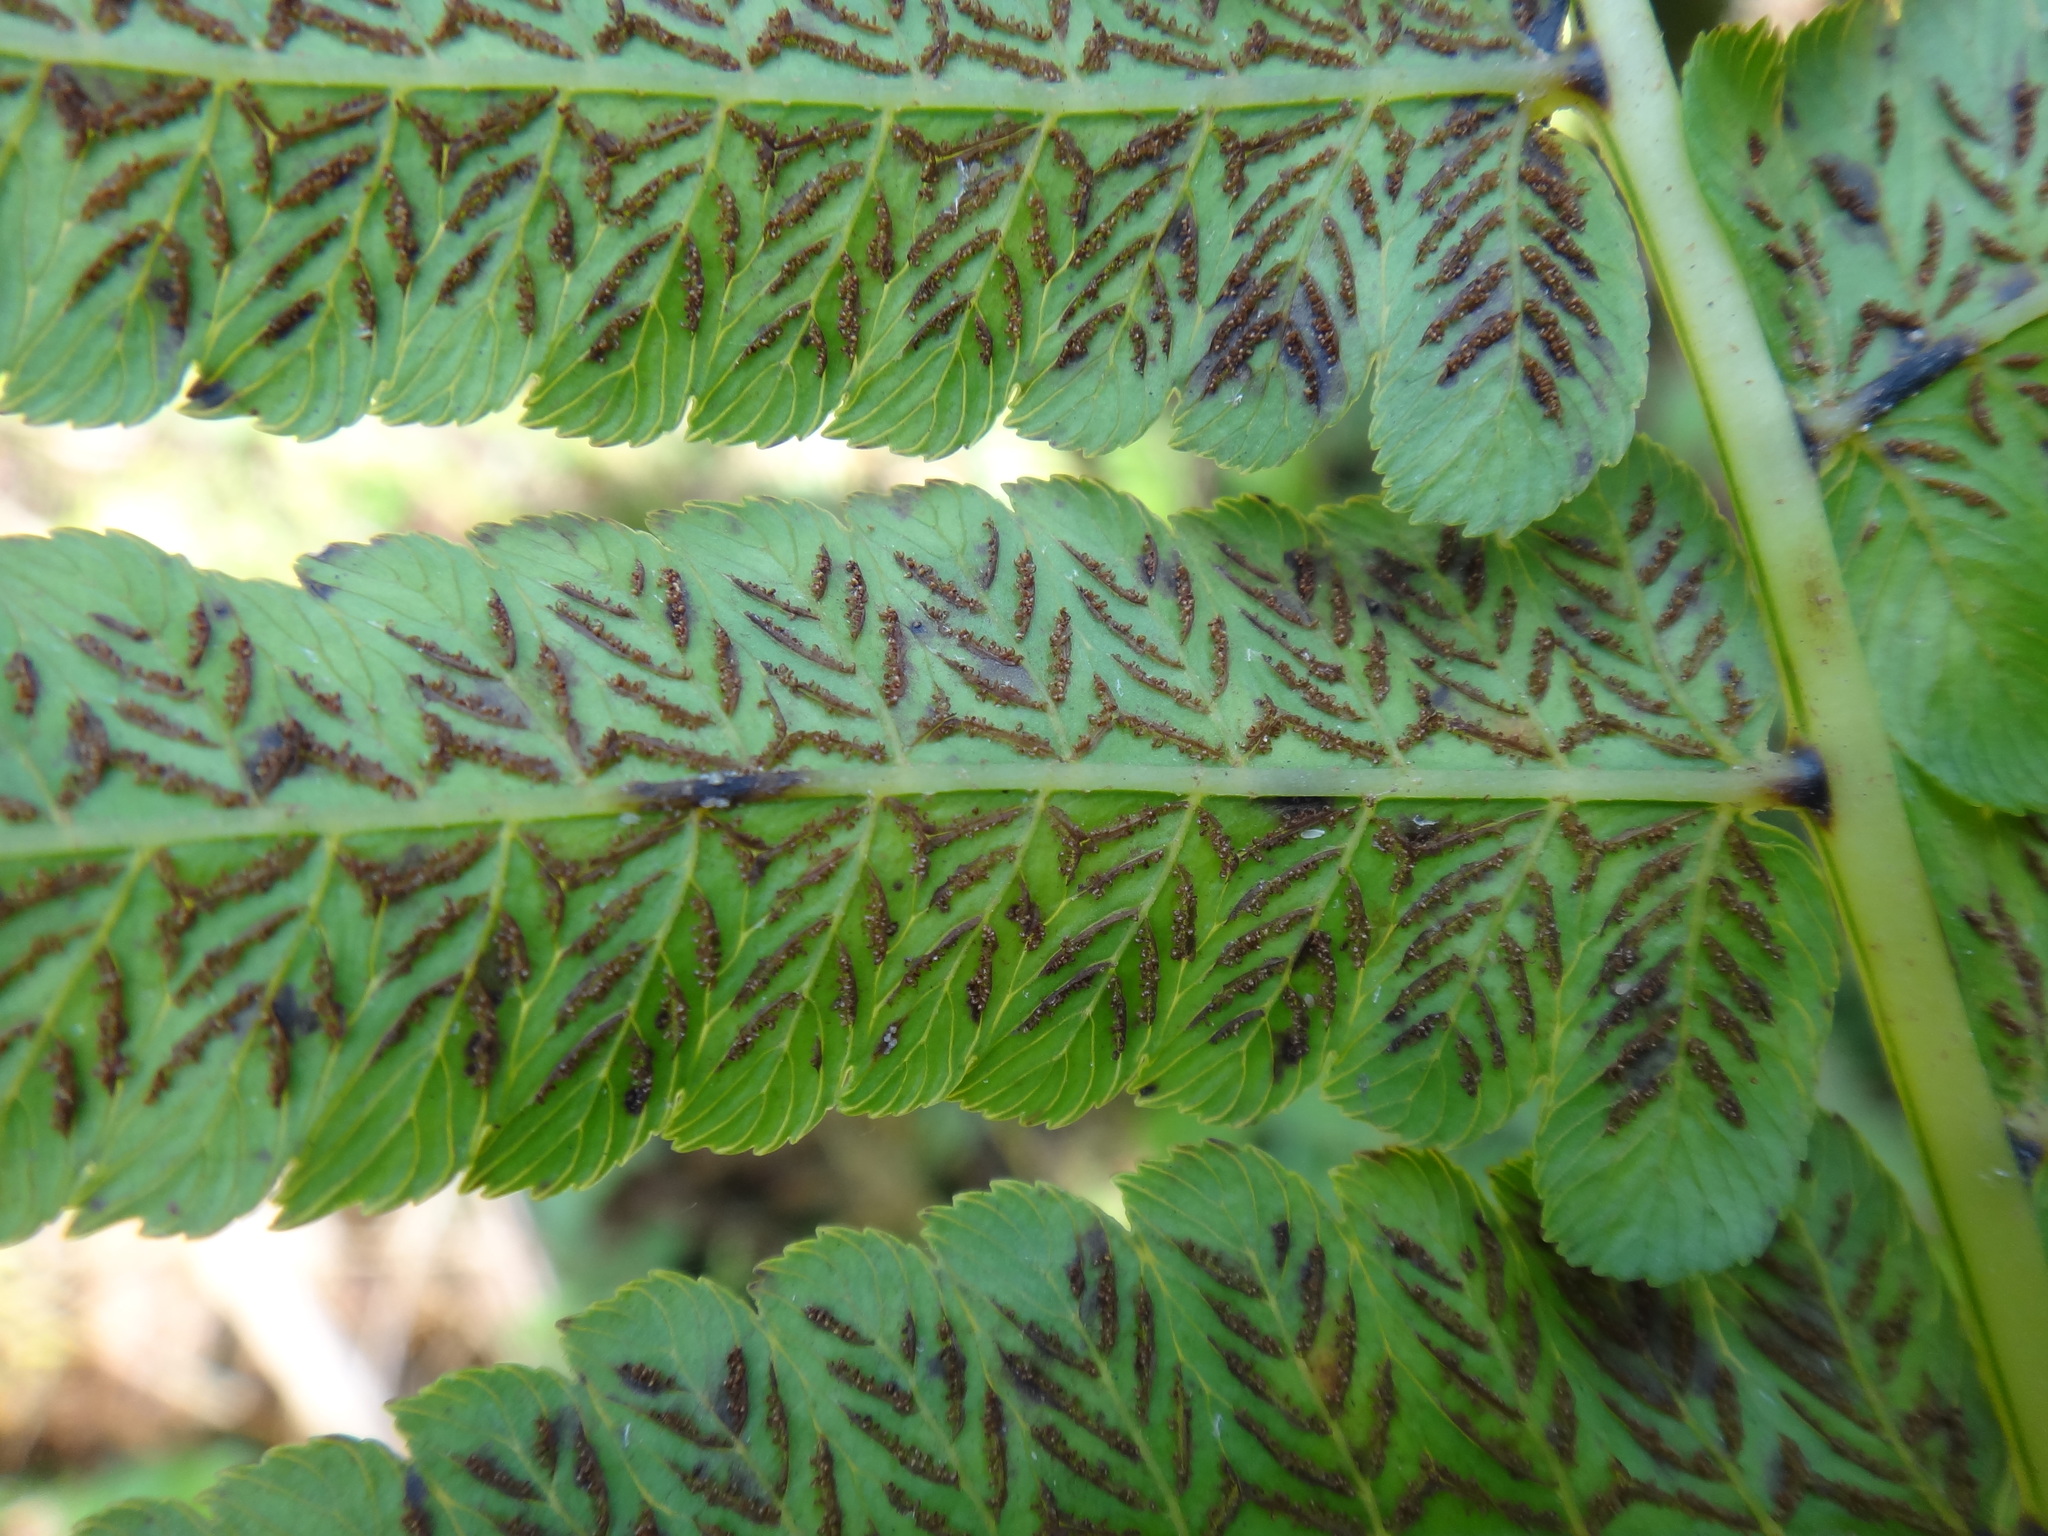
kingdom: Plantae
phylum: Tracheophyta
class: Polypodiopsida
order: Polypodiales
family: Athyriaceae
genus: Diplazium
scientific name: Diplazium esculentum
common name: Vegetable fern
